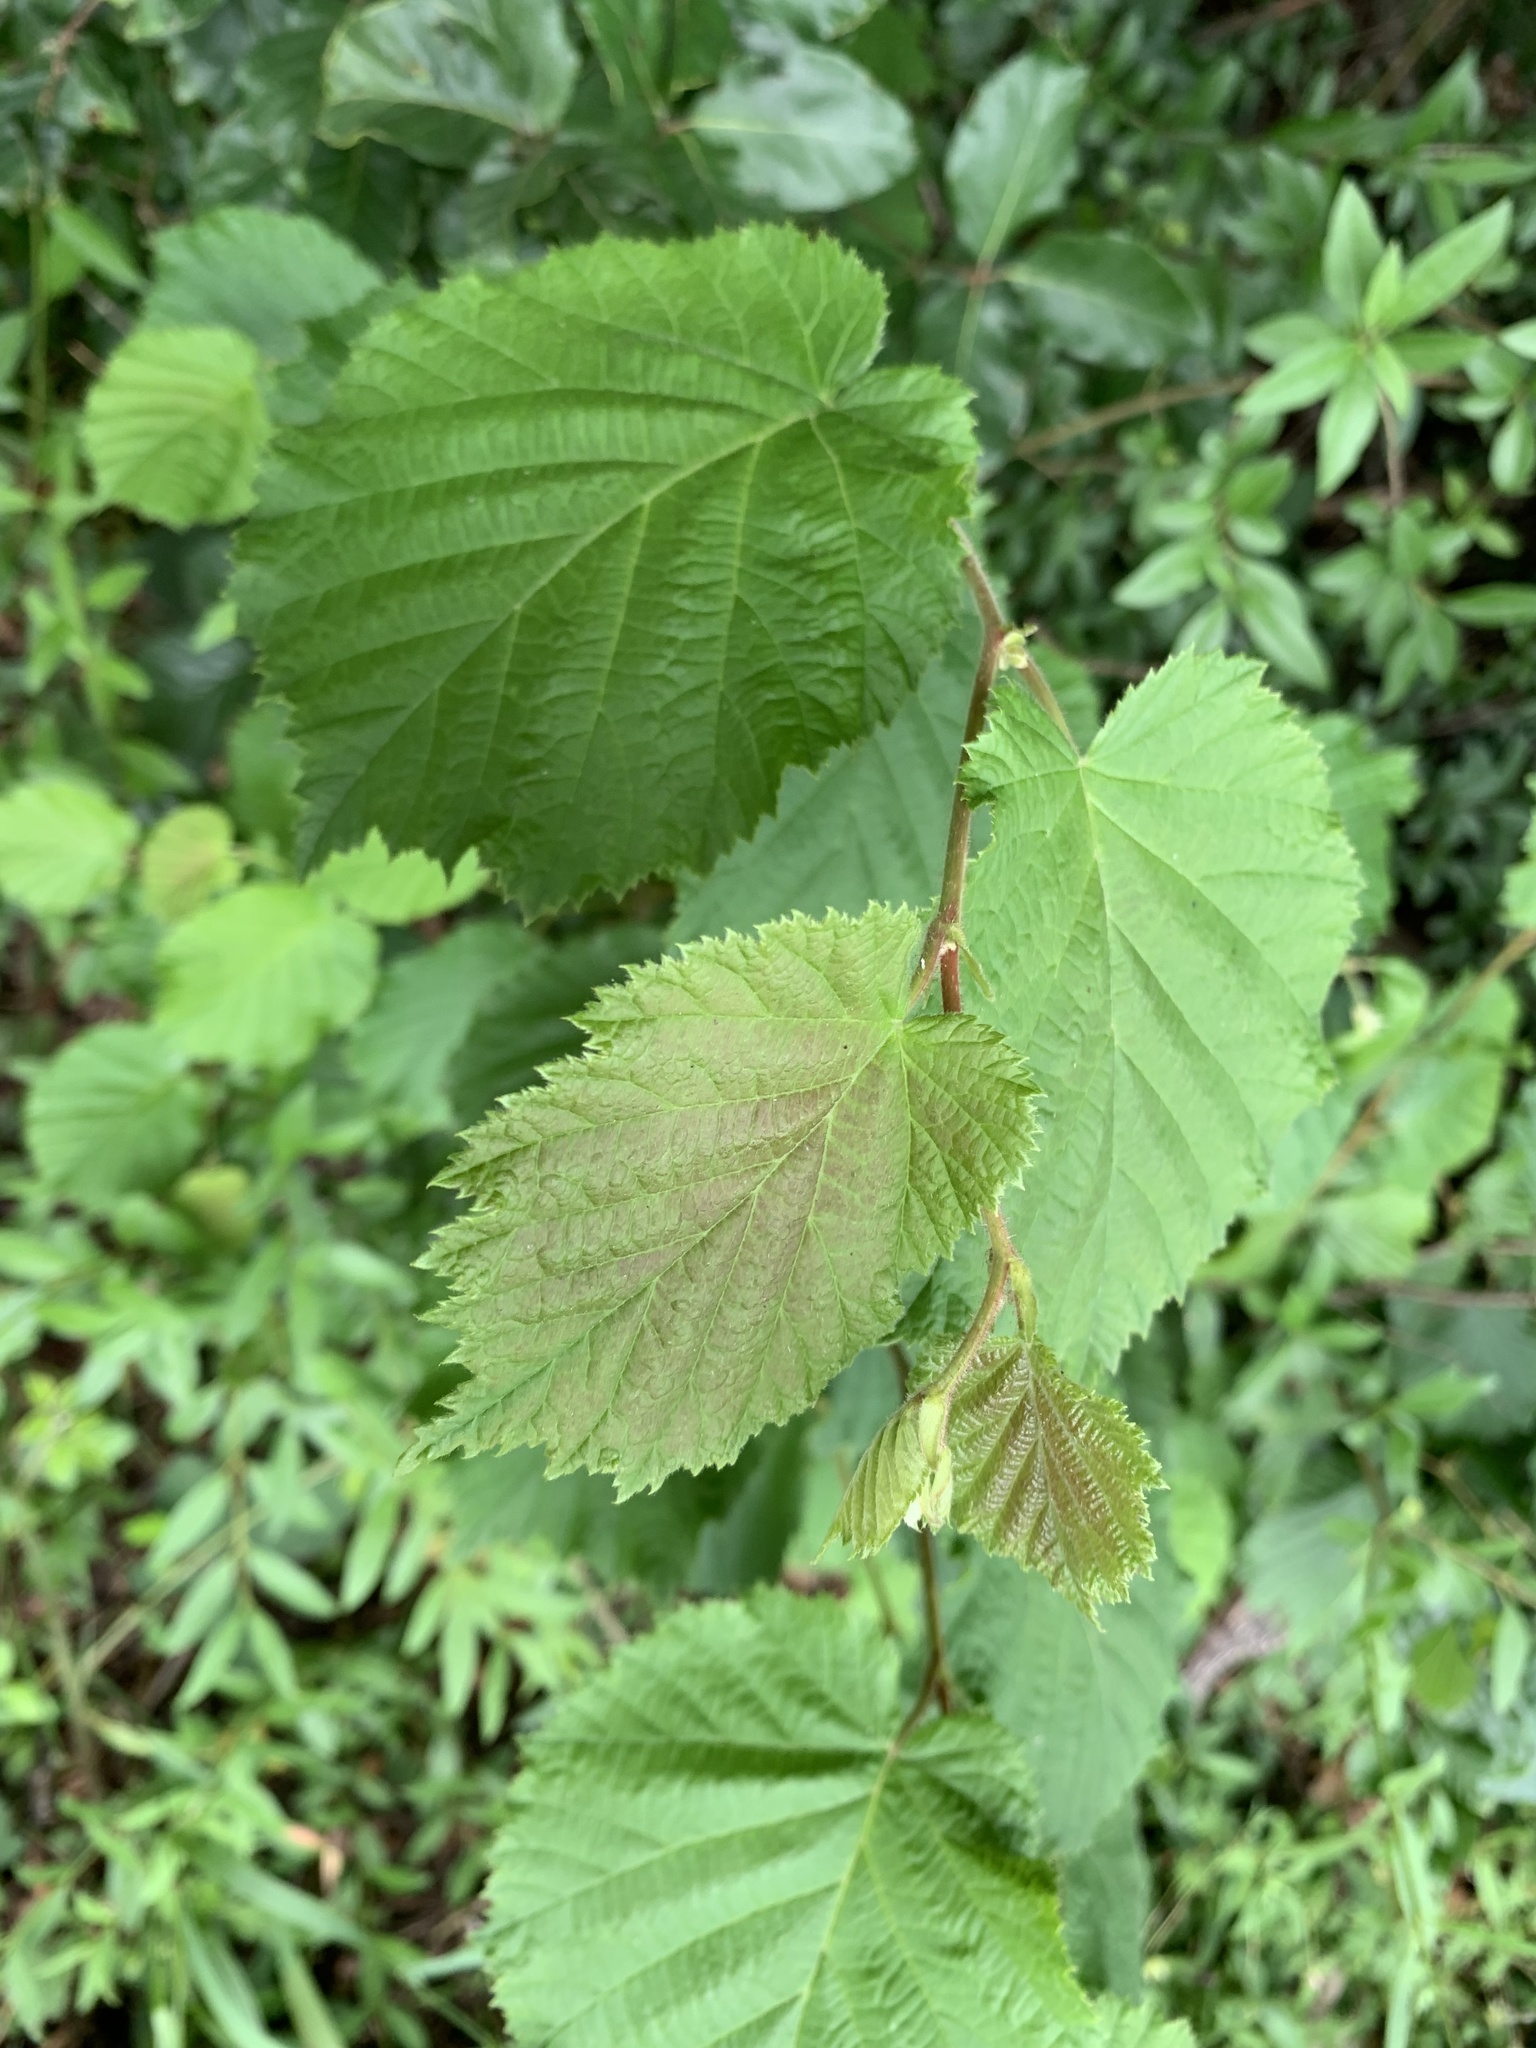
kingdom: Plantae
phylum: Tracheophyta
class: Magnoliopsida
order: Fagales
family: Betulaceae
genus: Corylus
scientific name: Corylus avellana
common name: European hazel
